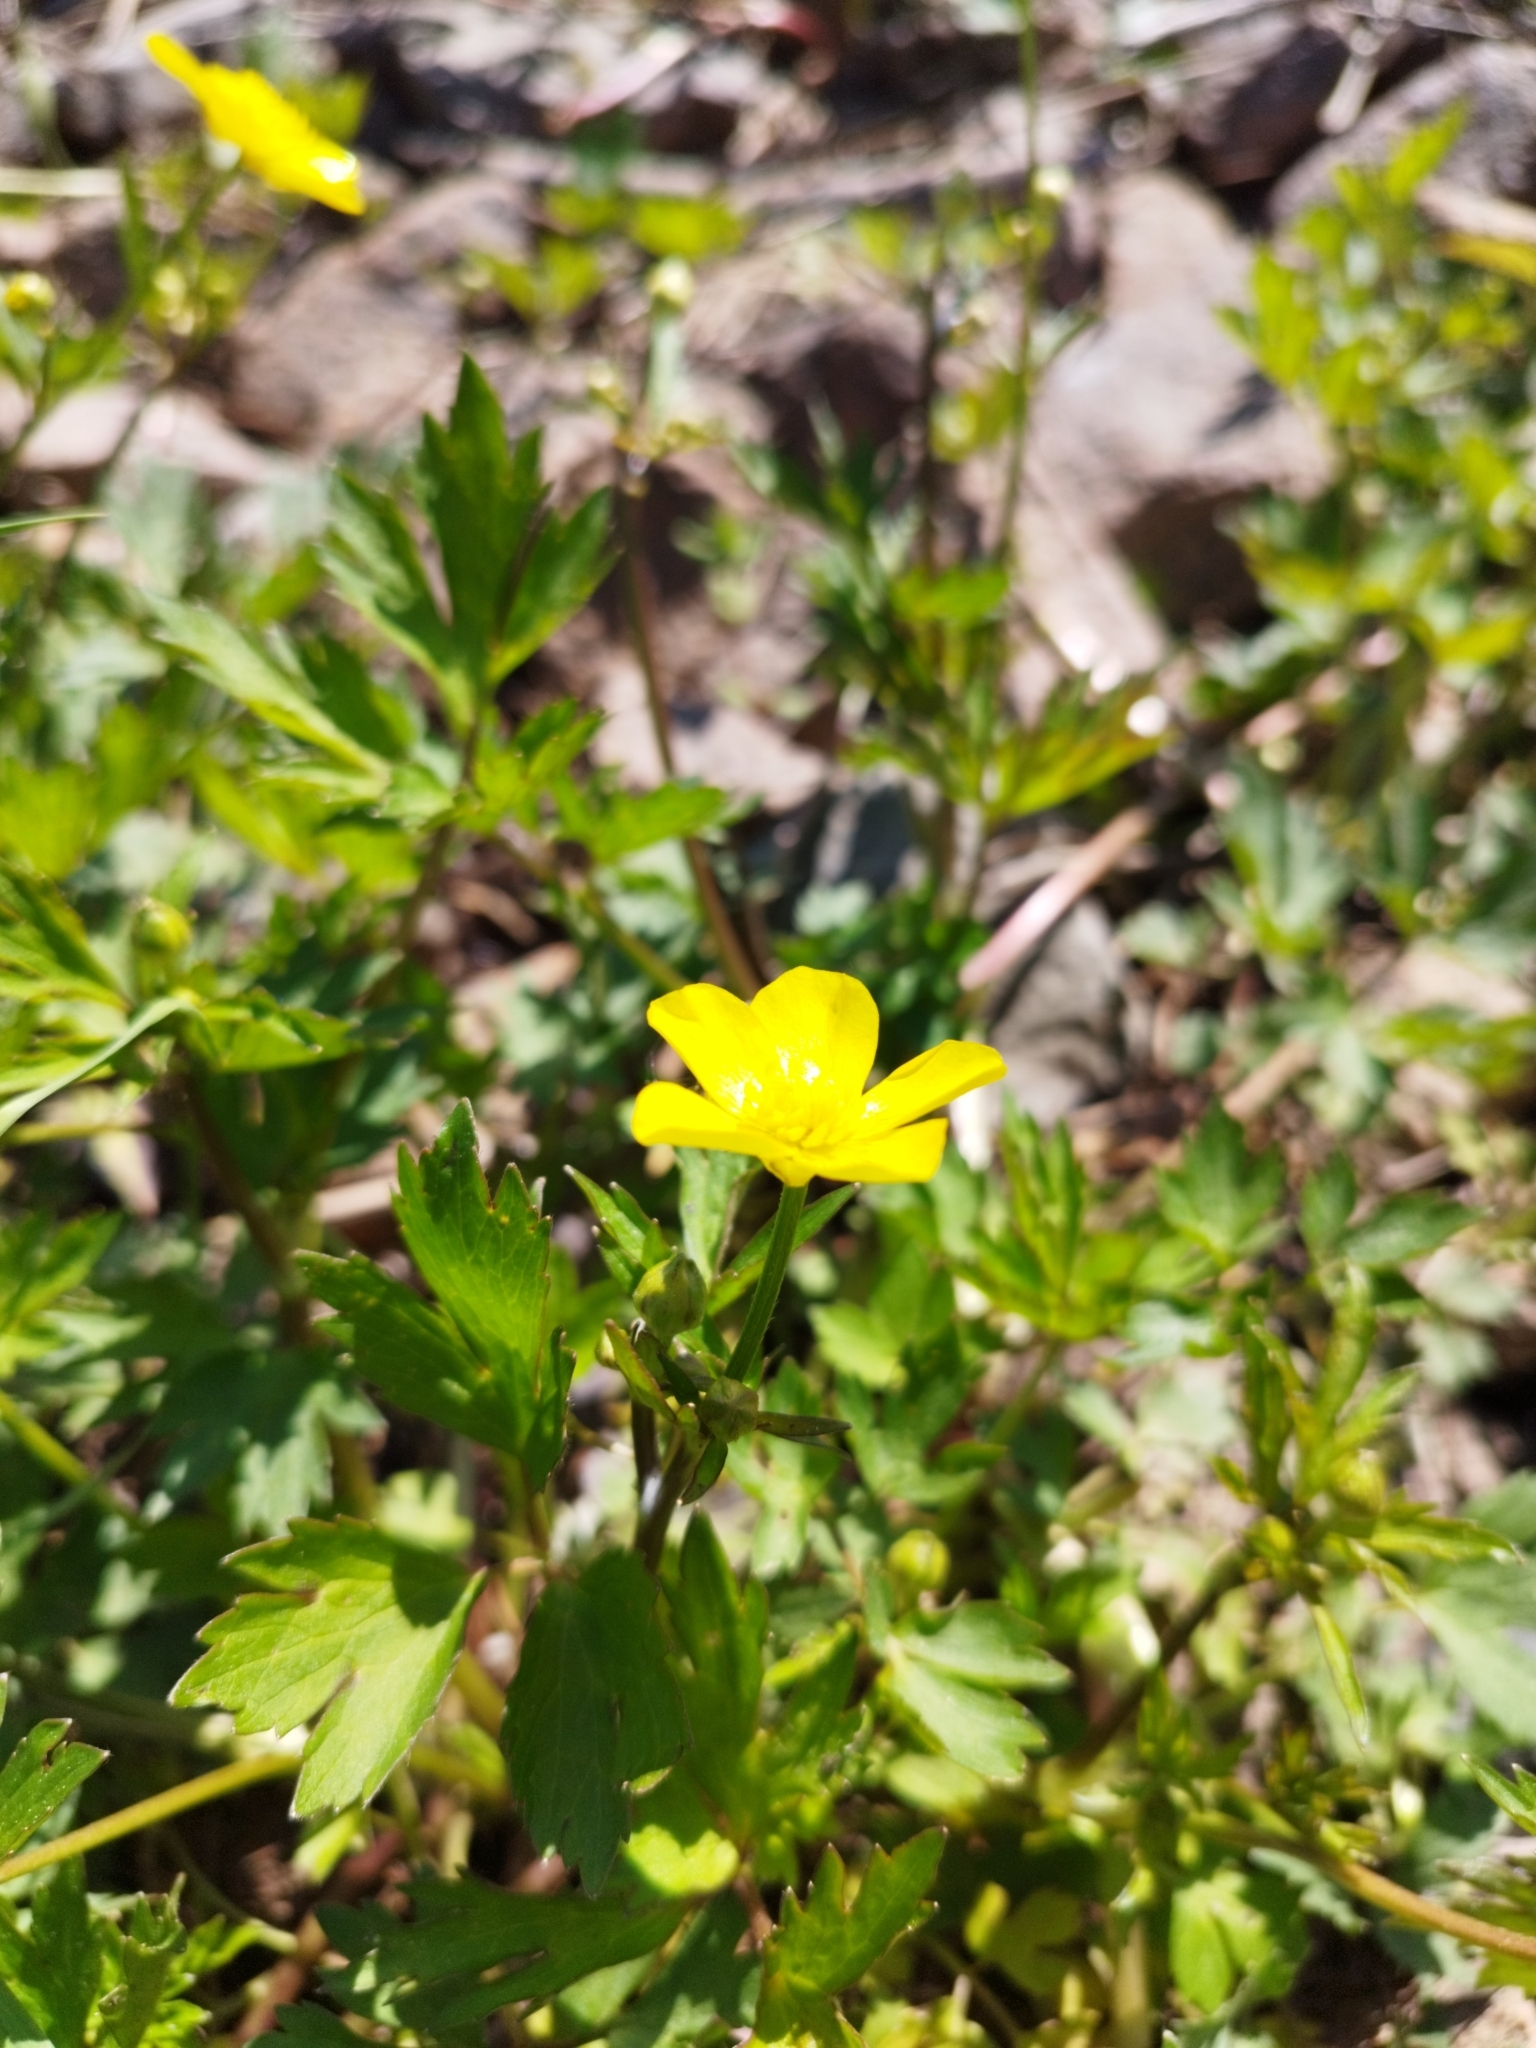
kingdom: Plantae
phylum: Tracheophyta
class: Magnoliopsida
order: Ranunculales
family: Ranunculaceae
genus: Ranunculus
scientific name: Ranunculus repens
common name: Creeping buttercup
